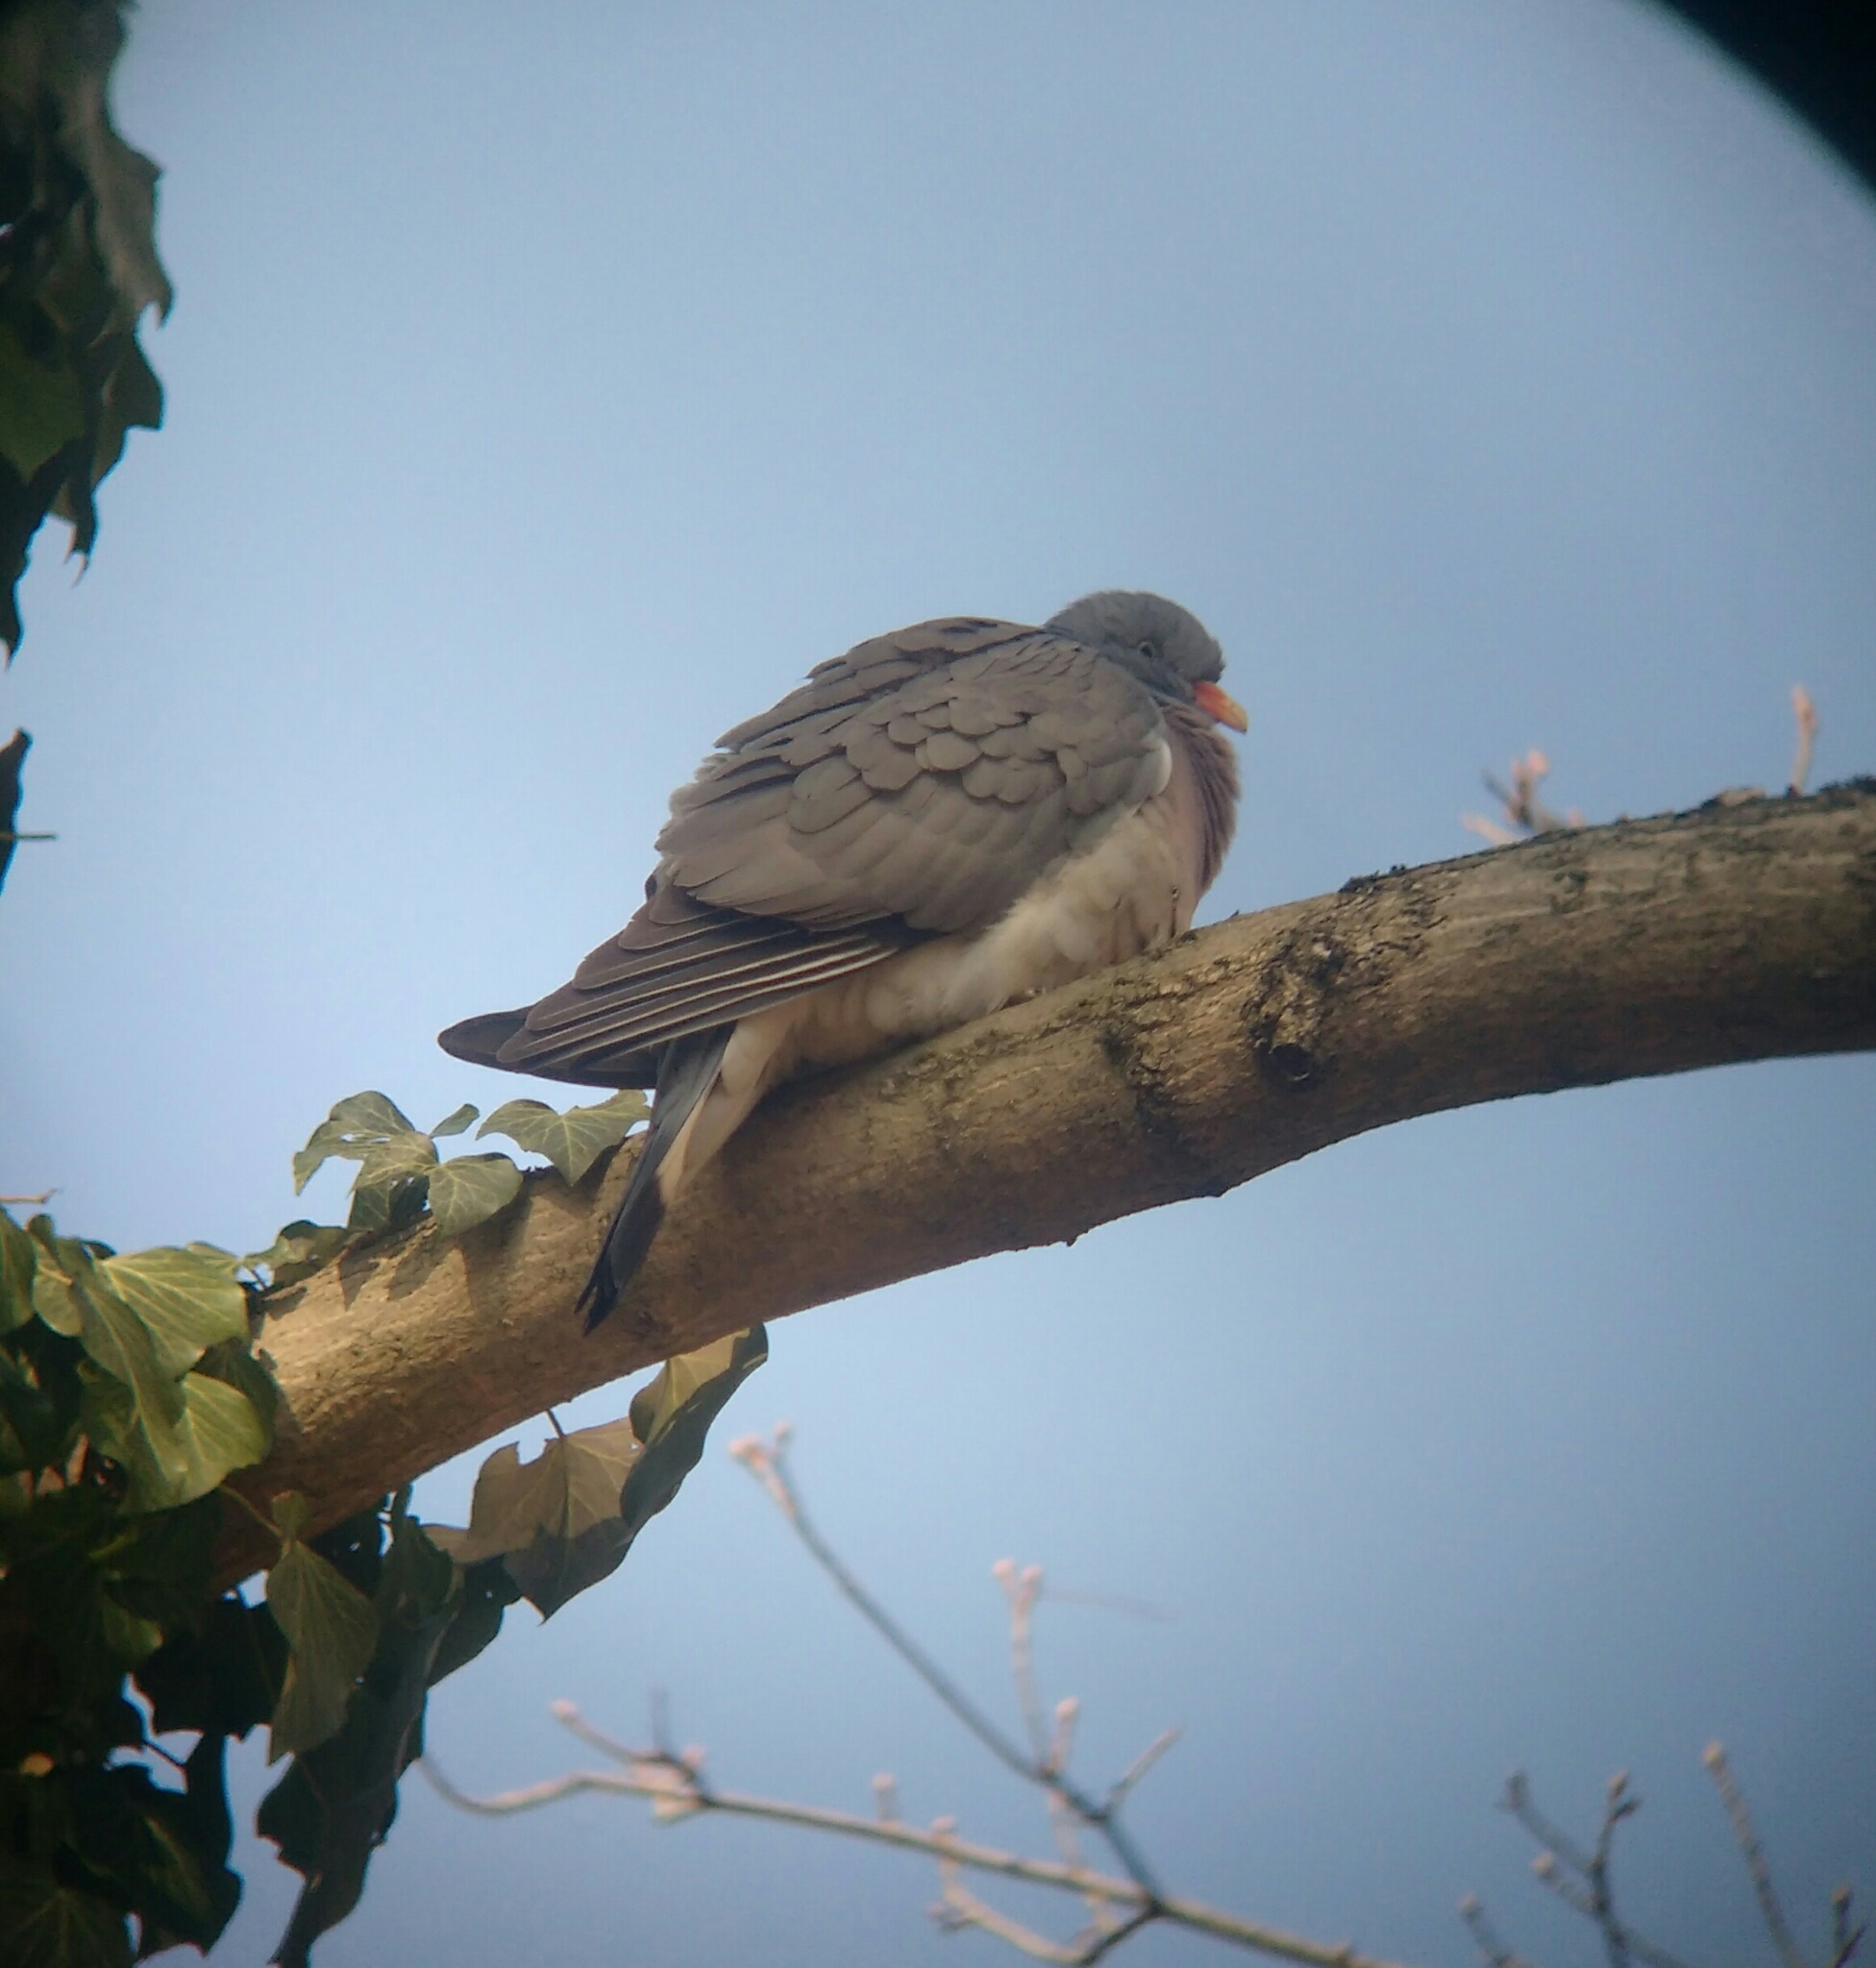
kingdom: Animalia
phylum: Chordata
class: Aves
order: Columbiformes
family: Columbidae
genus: Columba
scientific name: Columba palumbus
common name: Common wood pigeon
